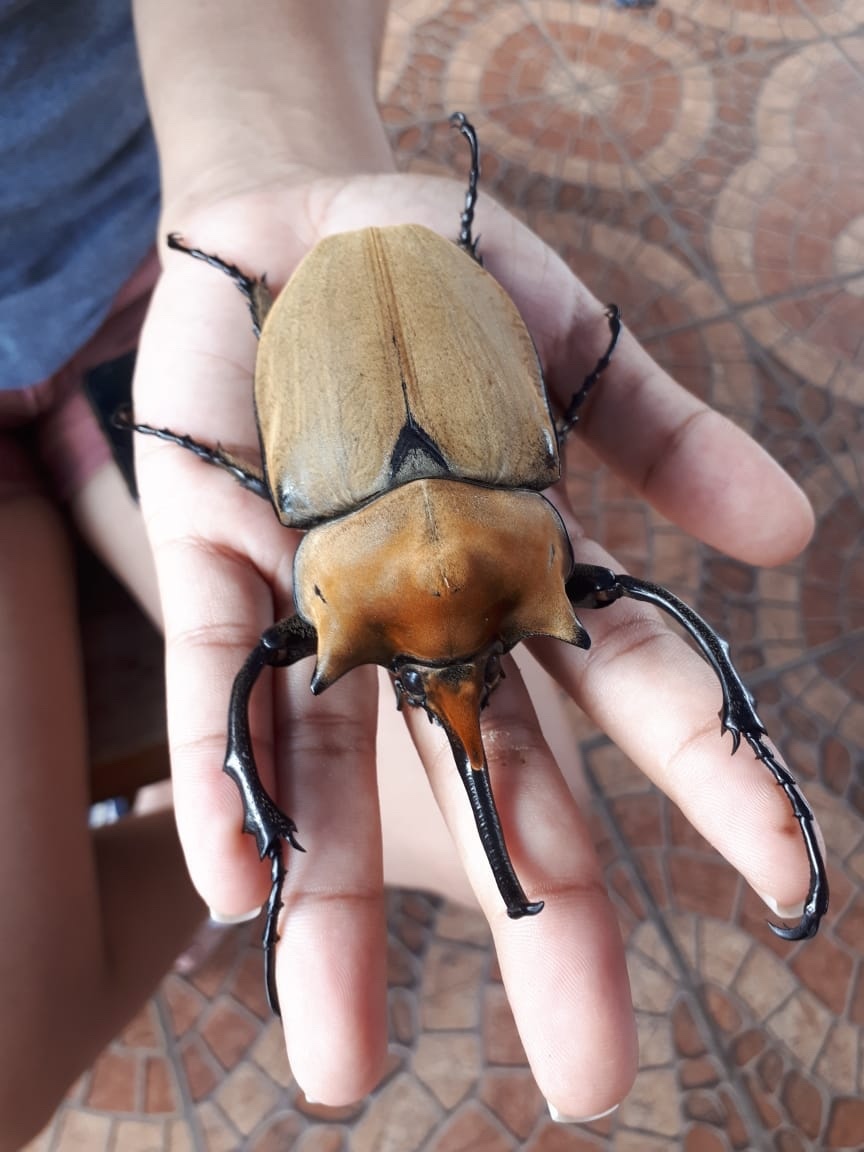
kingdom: Animalia
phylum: Arthropoda
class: Insecta
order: Coleoptera
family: Scarabaeidae
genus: Megasoma
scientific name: Megasoma elephas
